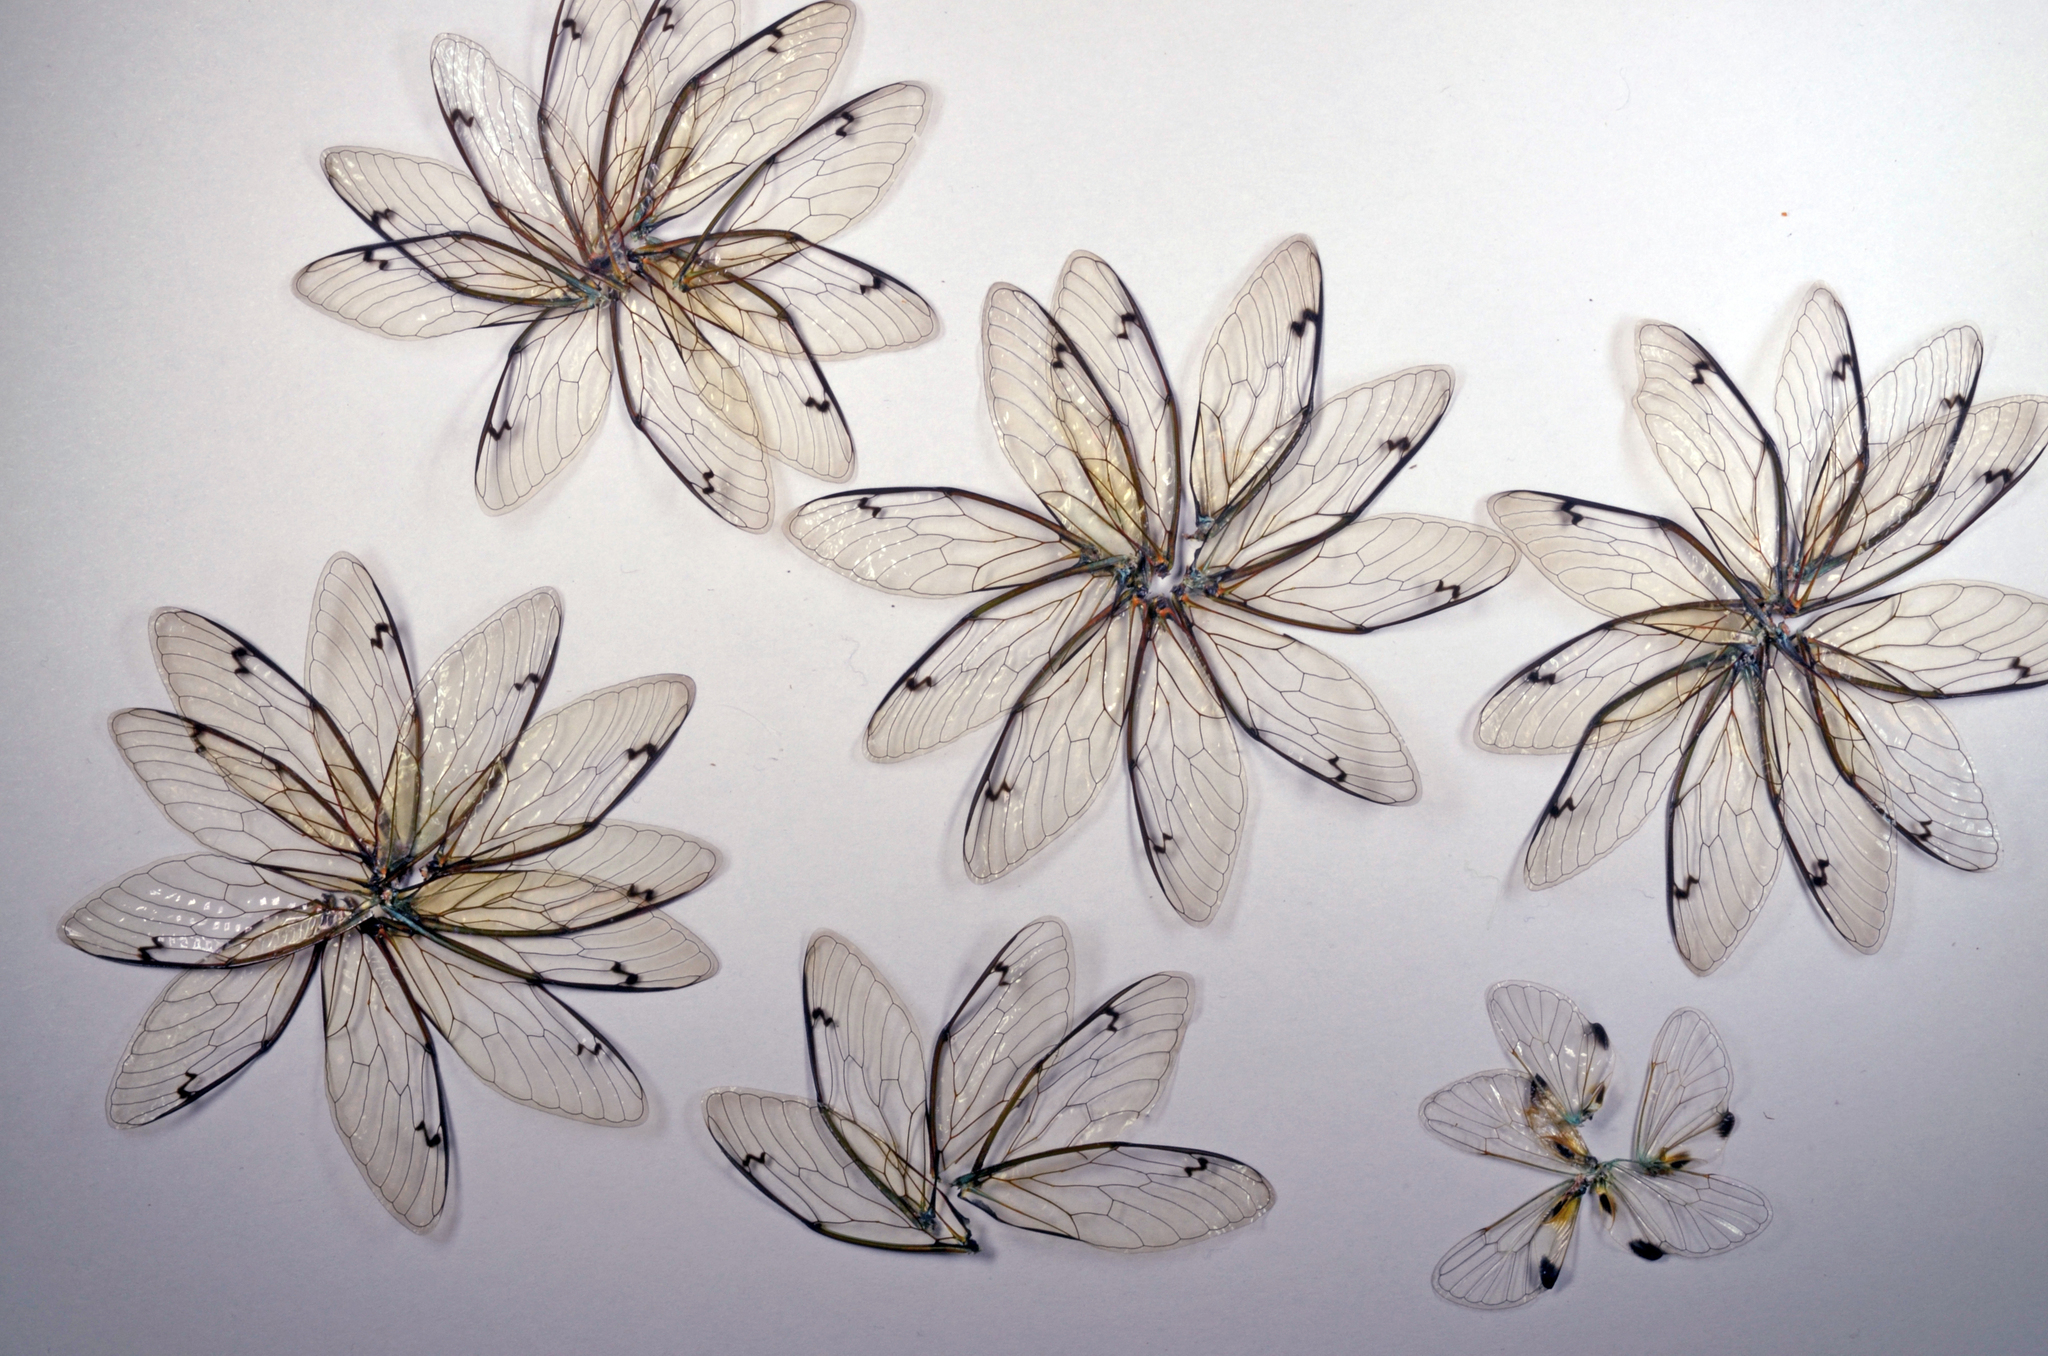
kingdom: Animalia
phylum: Arthropoda
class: Insecta
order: Hemiptera
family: Cicadidae
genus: Amphipsalta
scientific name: Amphipsalta zelandica
